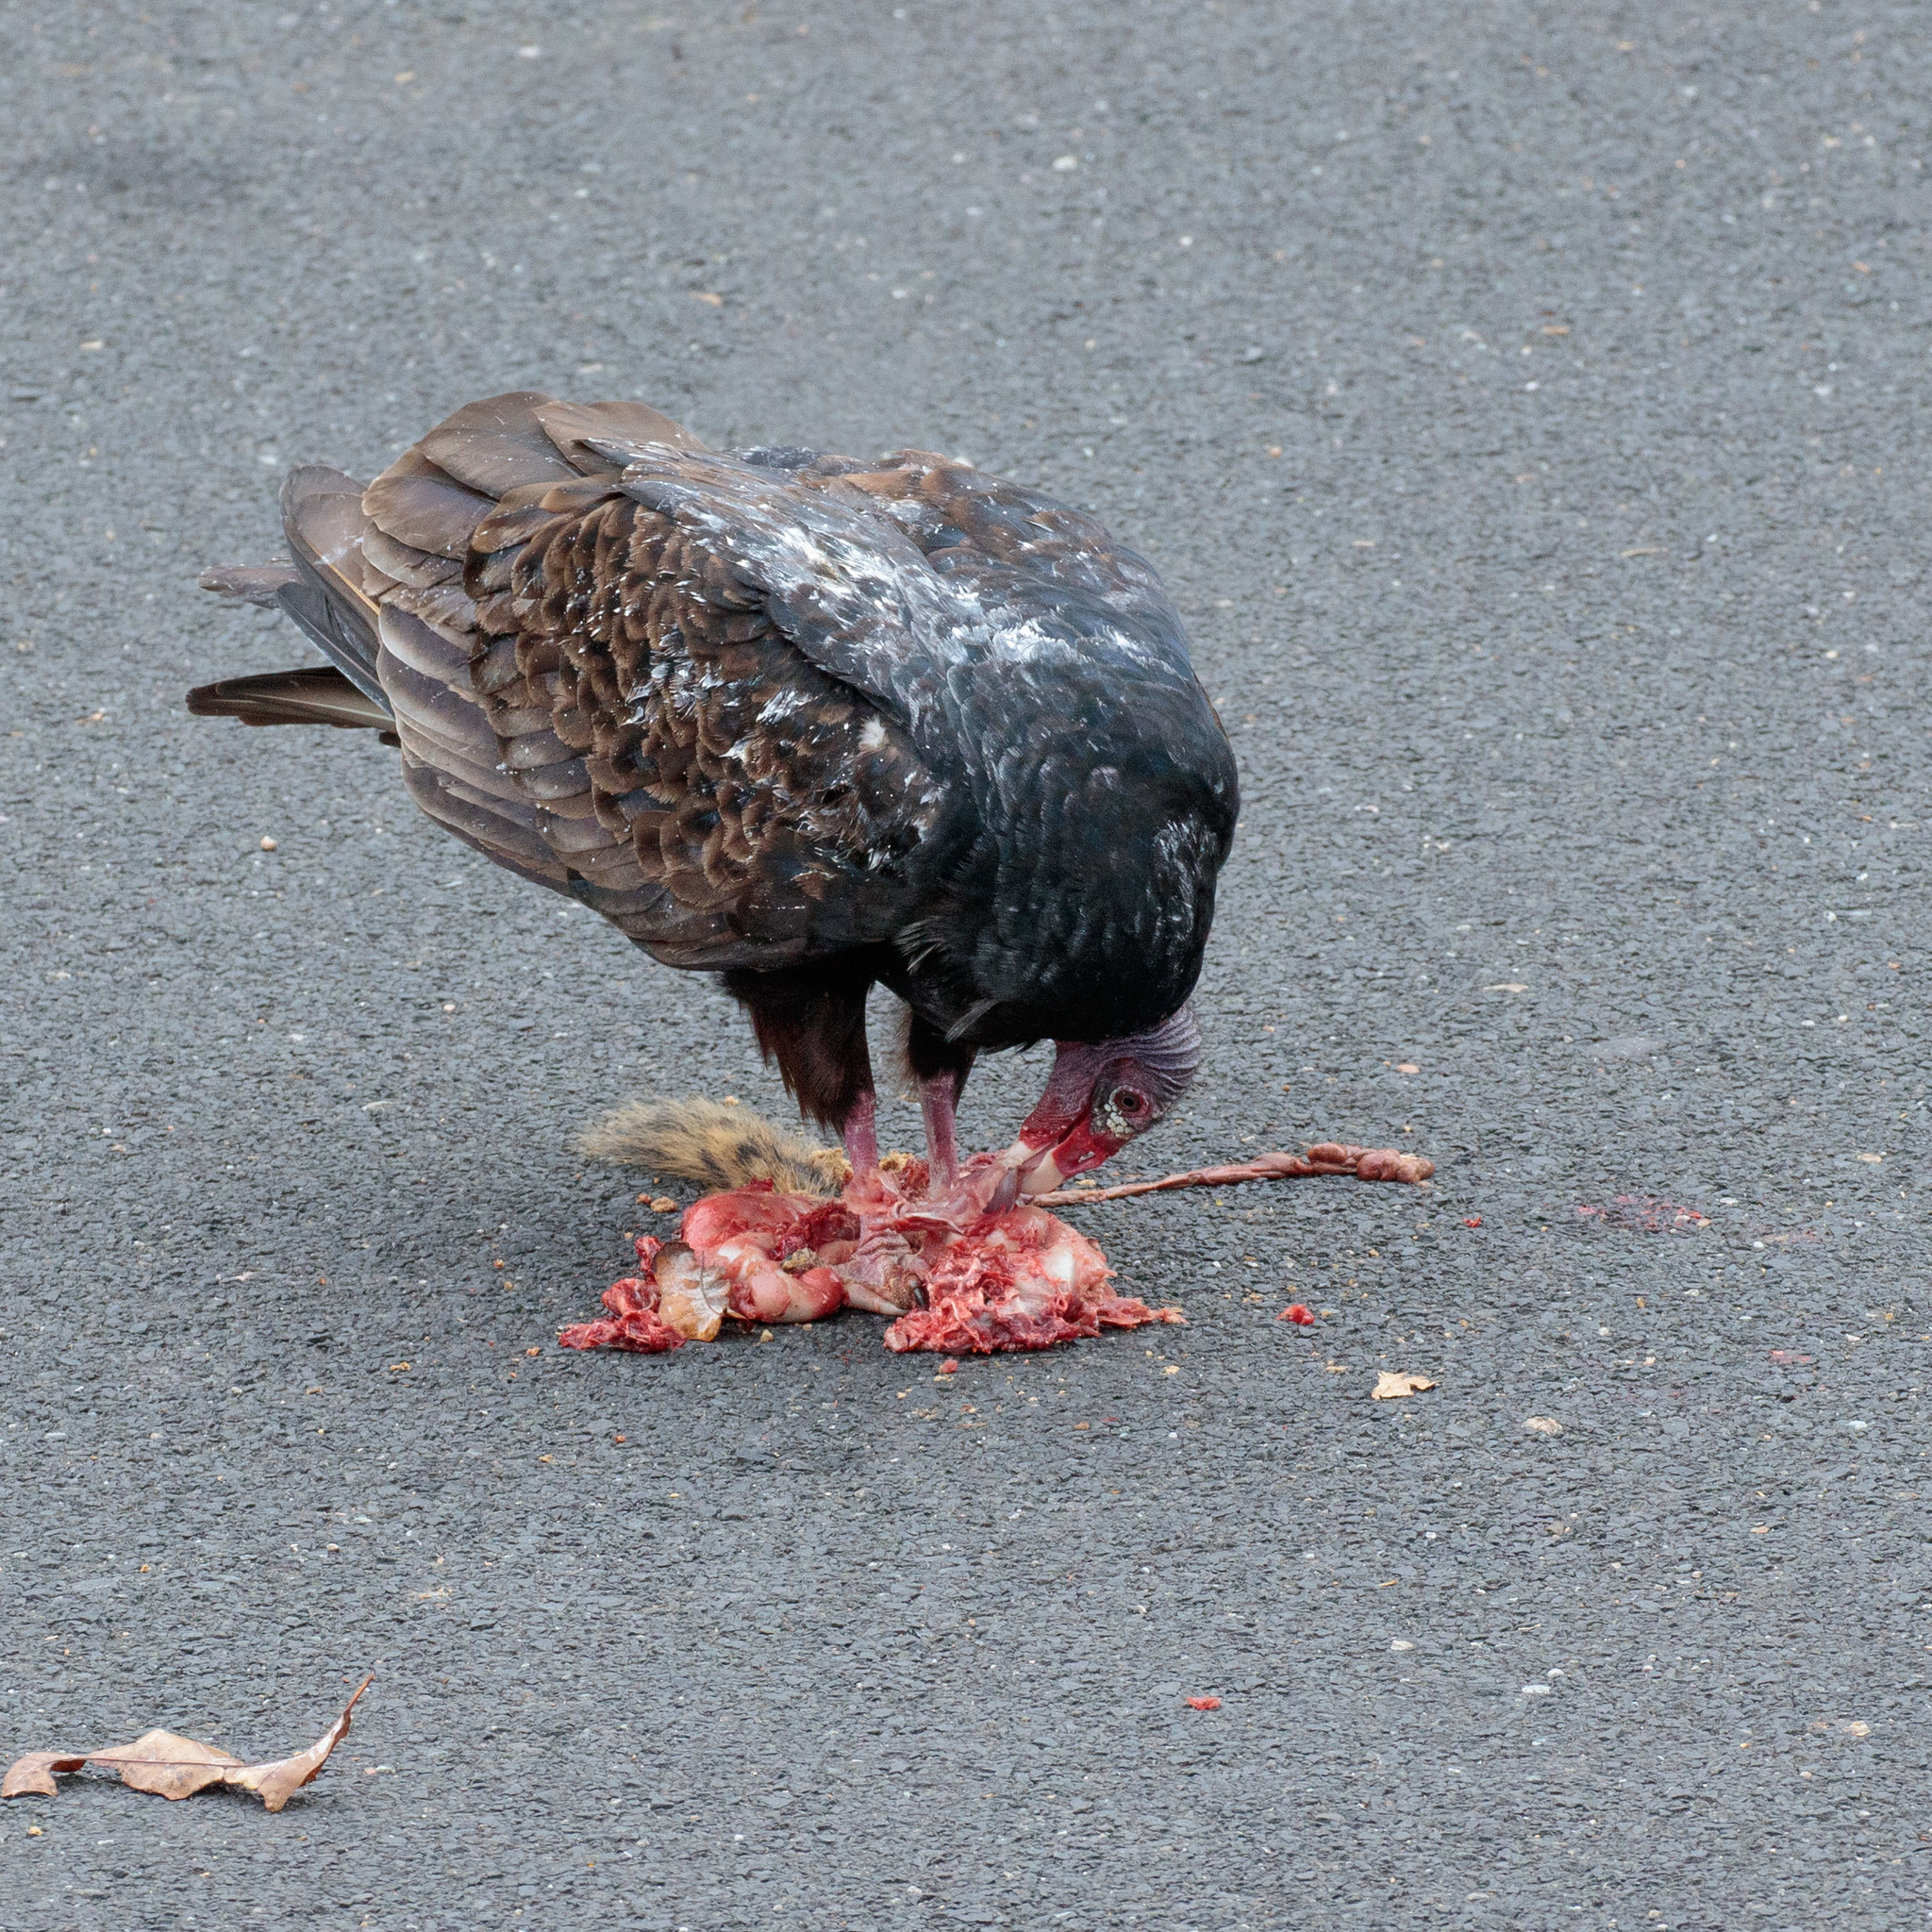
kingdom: Animalia
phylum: Chordata
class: Aves
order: Accipitriformes
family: Cathartidae
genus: Cathartes
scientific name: Cathartes aura
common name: Turkey vulture
